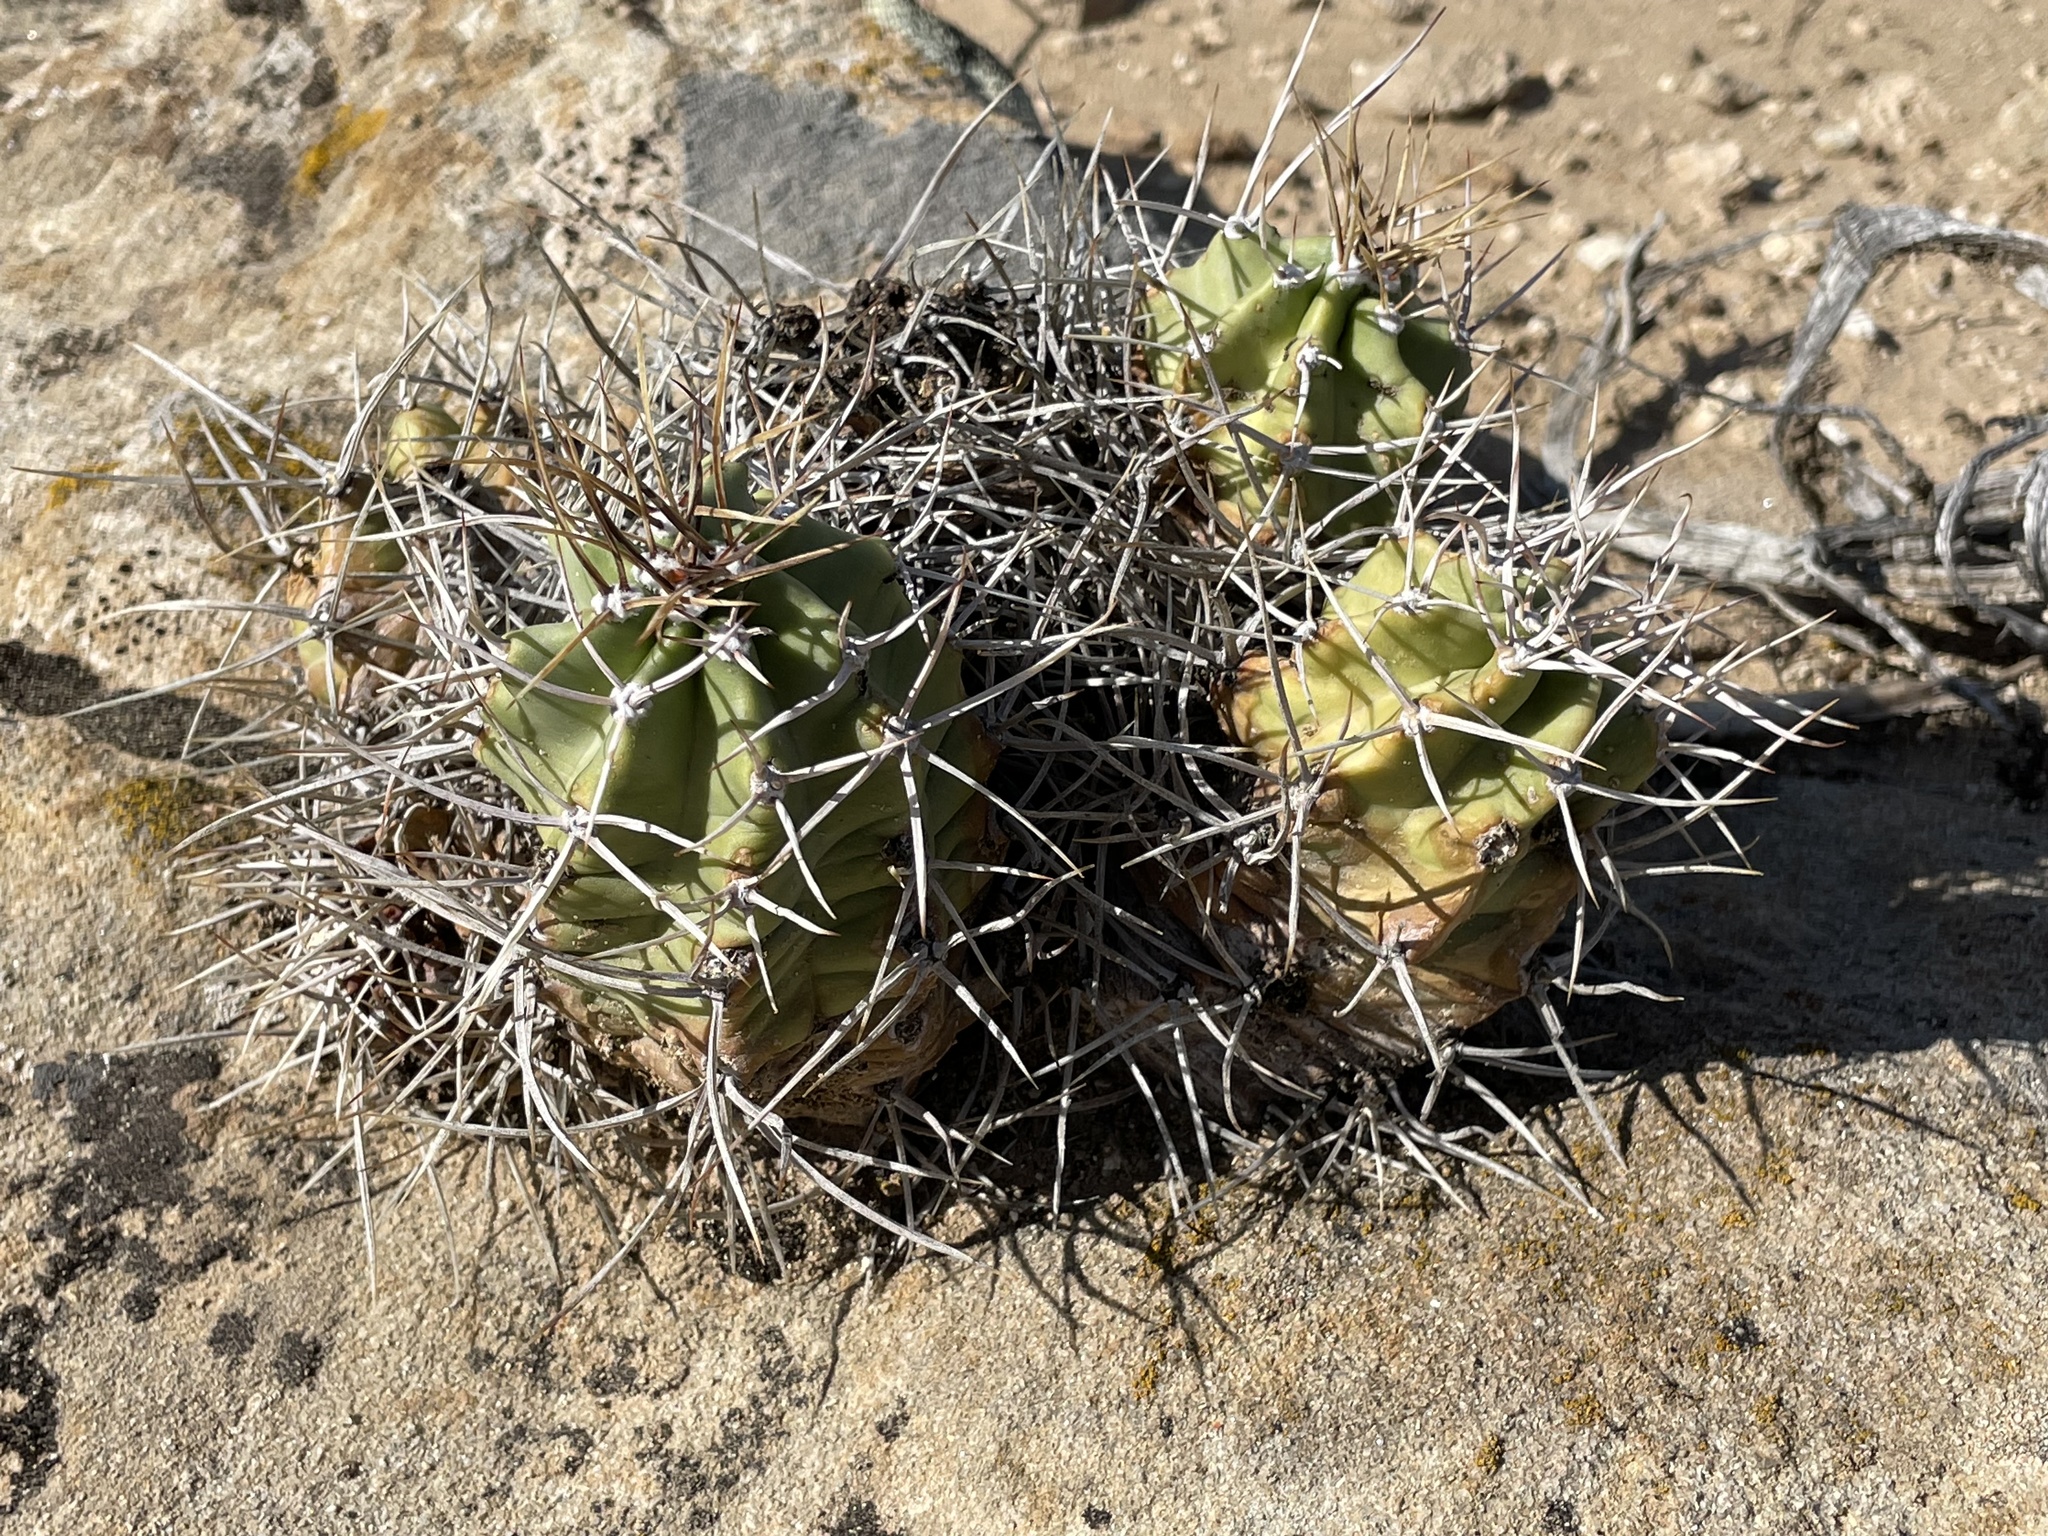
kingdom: Plantae
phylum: Tracheophyta
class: Magnoliopsida
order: Caryophyllales
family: Cactaceae
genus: Echinocereus
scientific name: Echinocereus triglochidiatus
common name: Claretcup hedgehog
